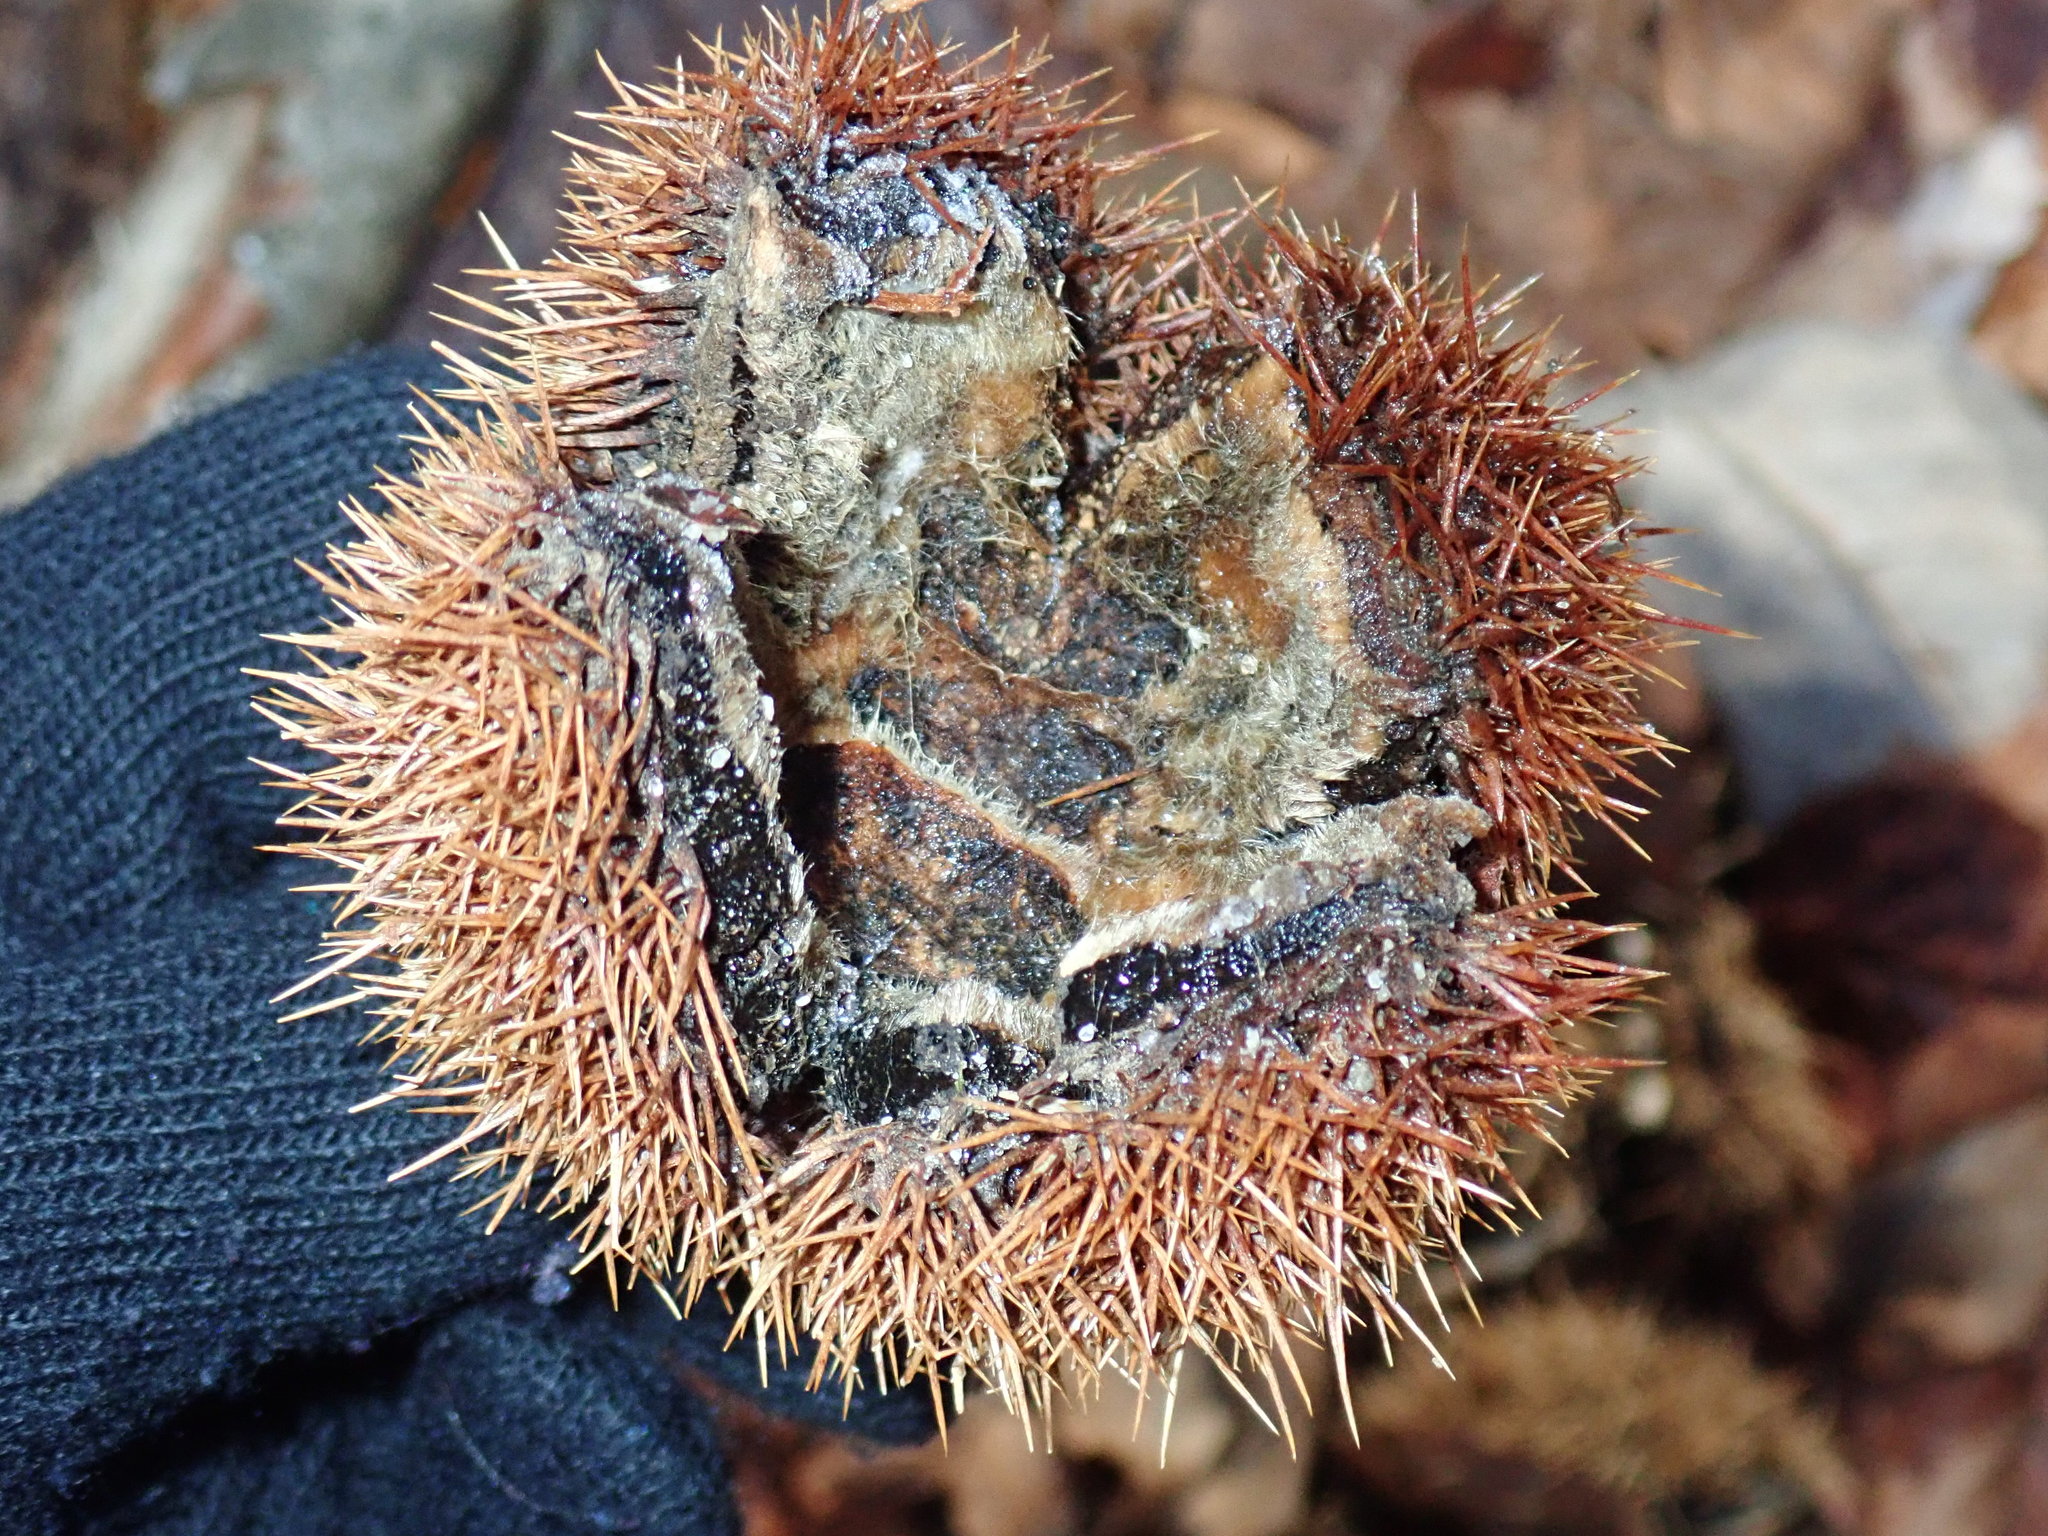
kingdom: Plantae
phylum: Tracheophyta
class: Magnoliopsida
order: Fagales
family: Fagaceae
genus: Castanea
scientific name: Castanea dentata
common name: American chestnut
